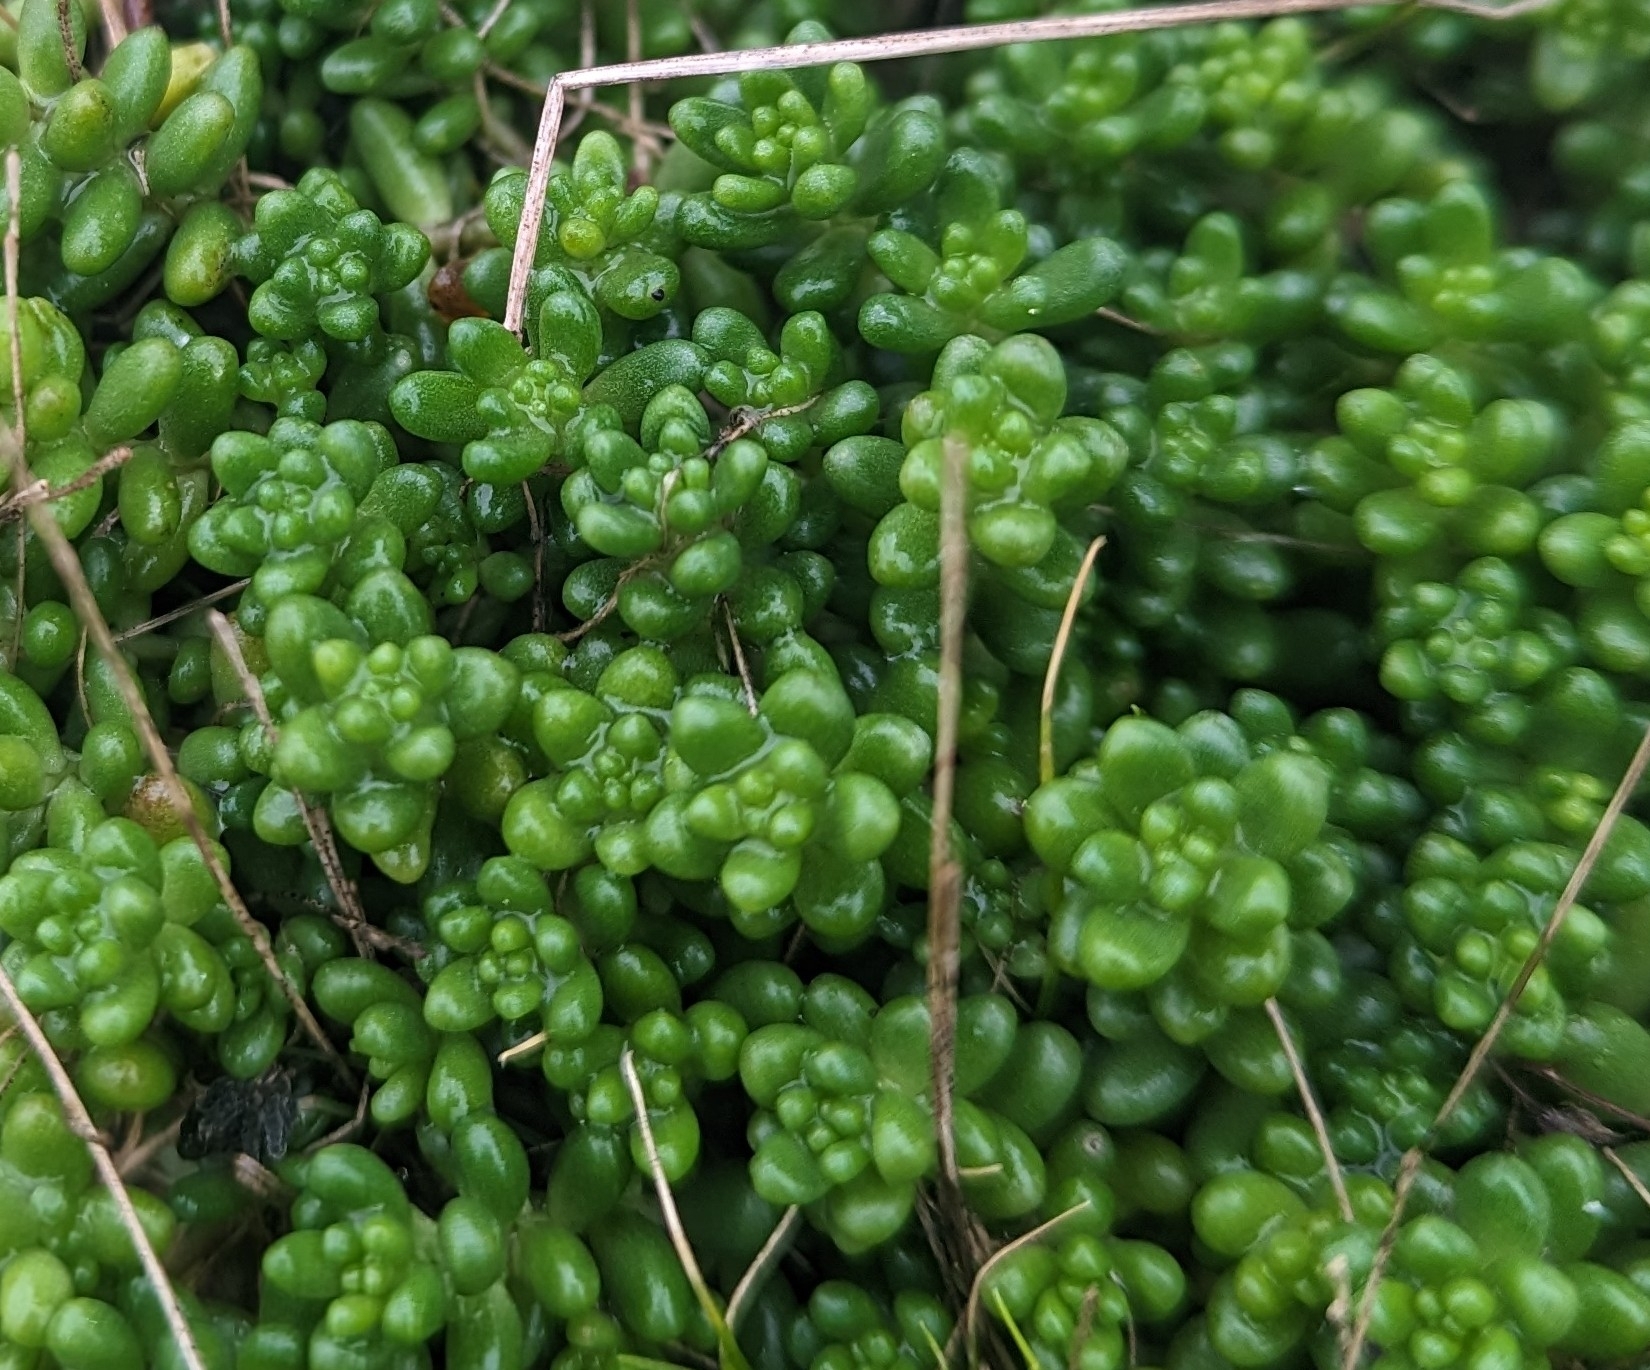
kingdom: Plantae
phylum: Tracheophyta
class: Magnoliopsida
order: Saxifragales
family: Crassulaceae
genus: Sedum
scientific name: Sedum album
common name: White stonecrop
